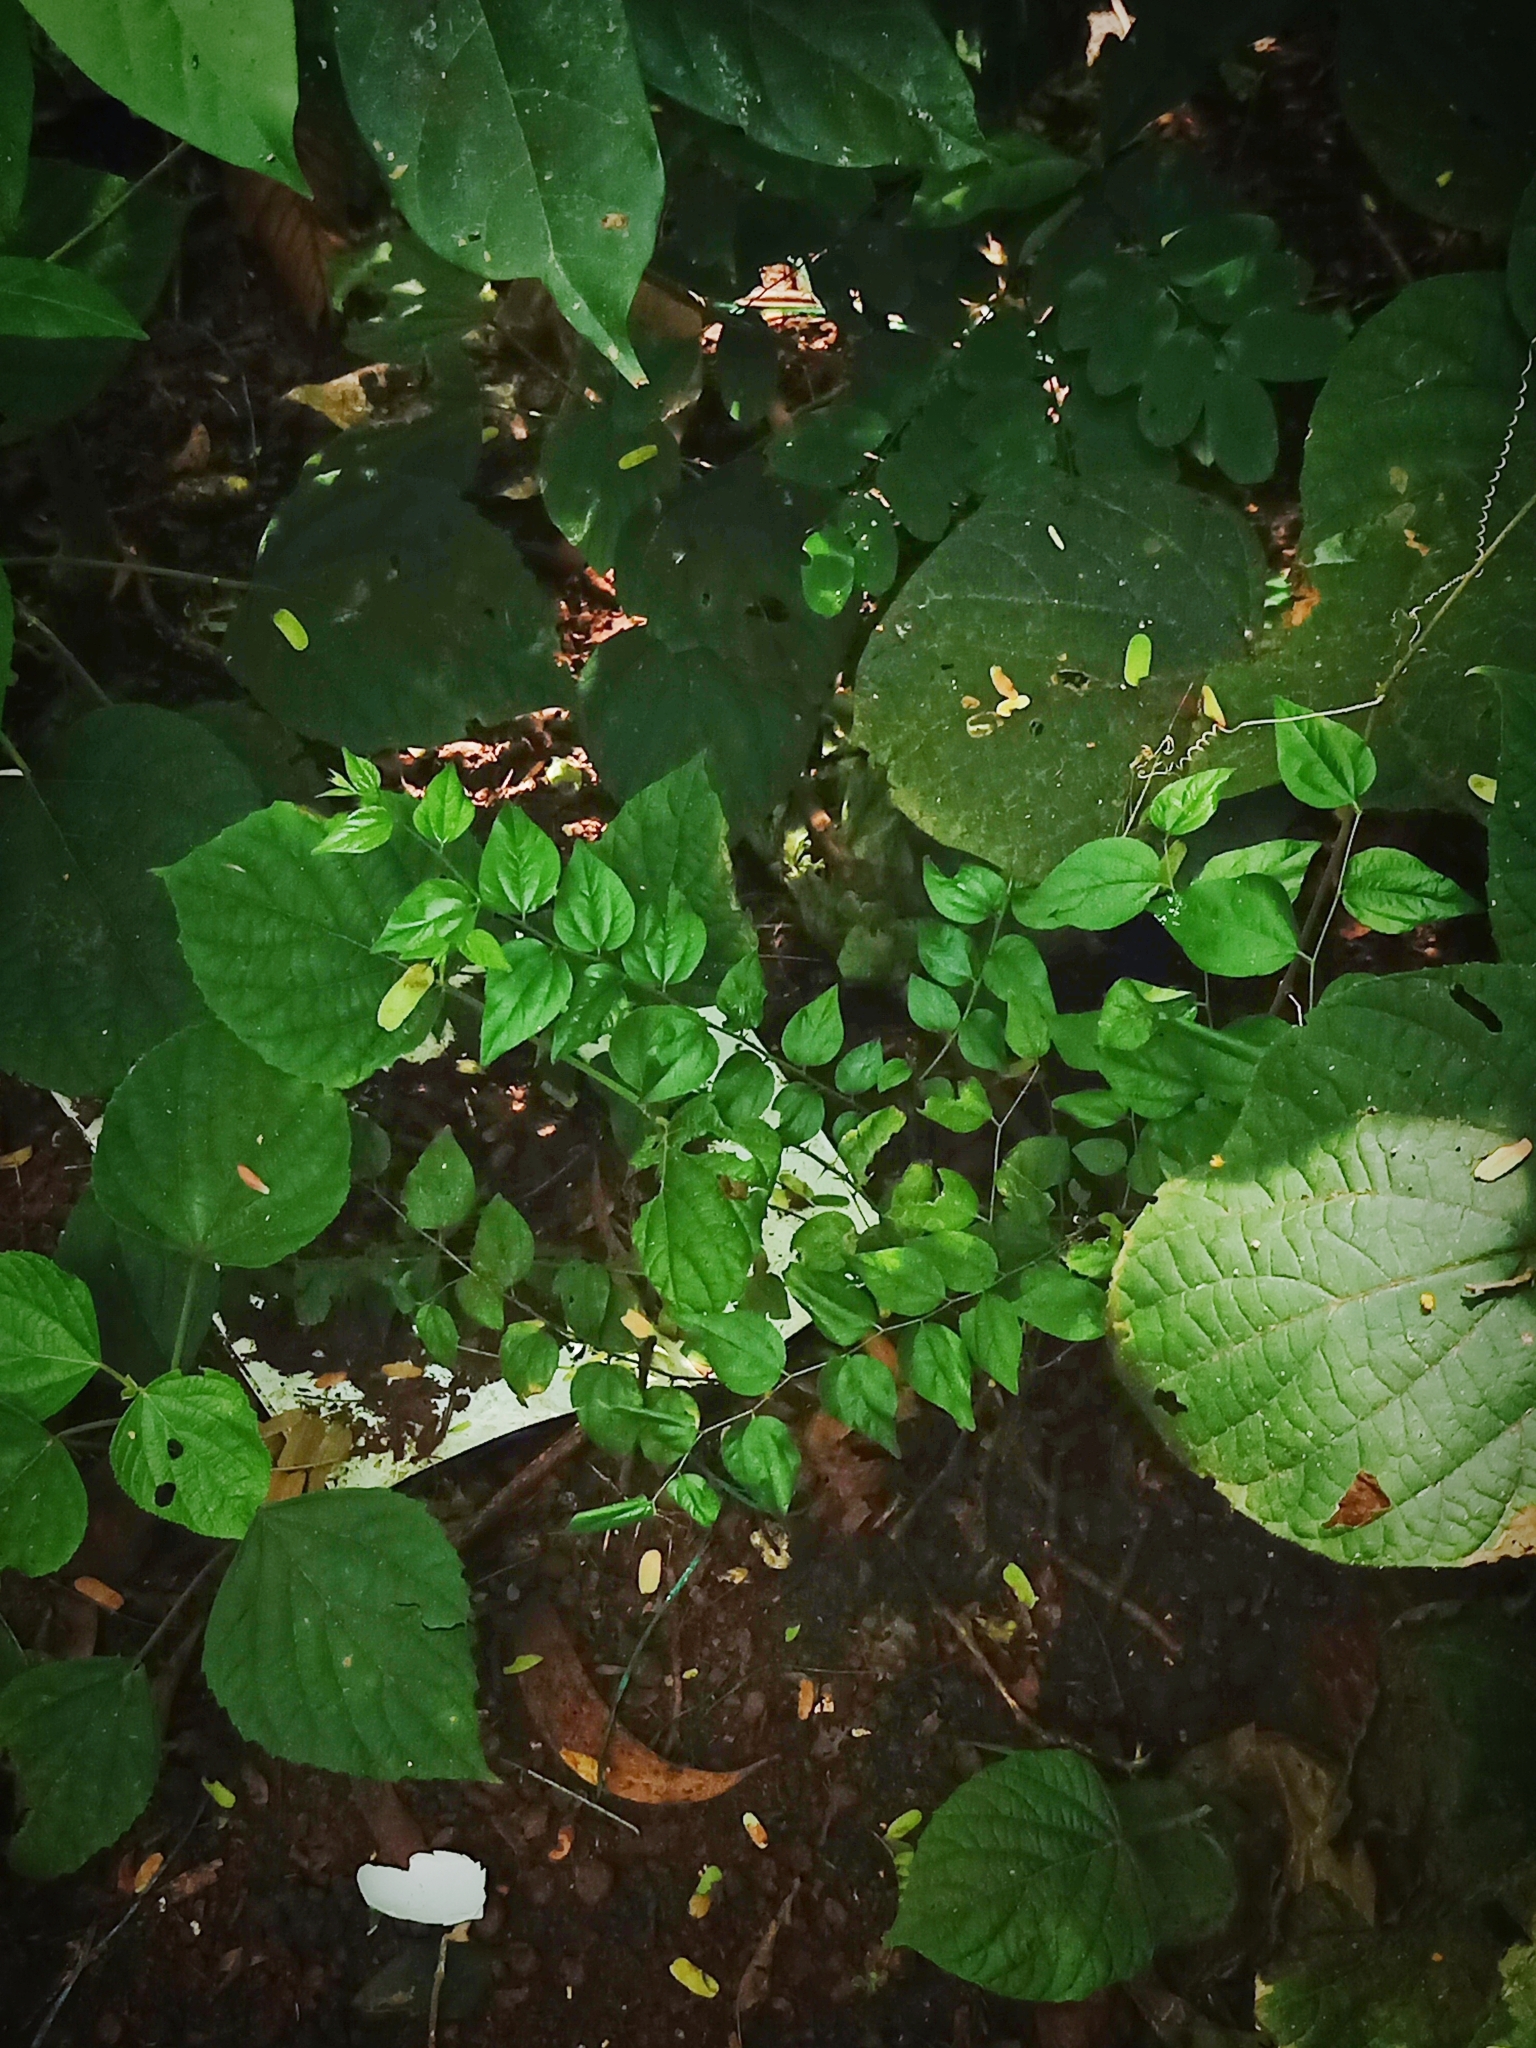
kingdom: Plantae
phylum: Tracheophyta
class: Magnoliopsida
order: Rosales
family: Rhamnaceae
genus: Ziziphus
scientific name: Ziziphus oenopolia
